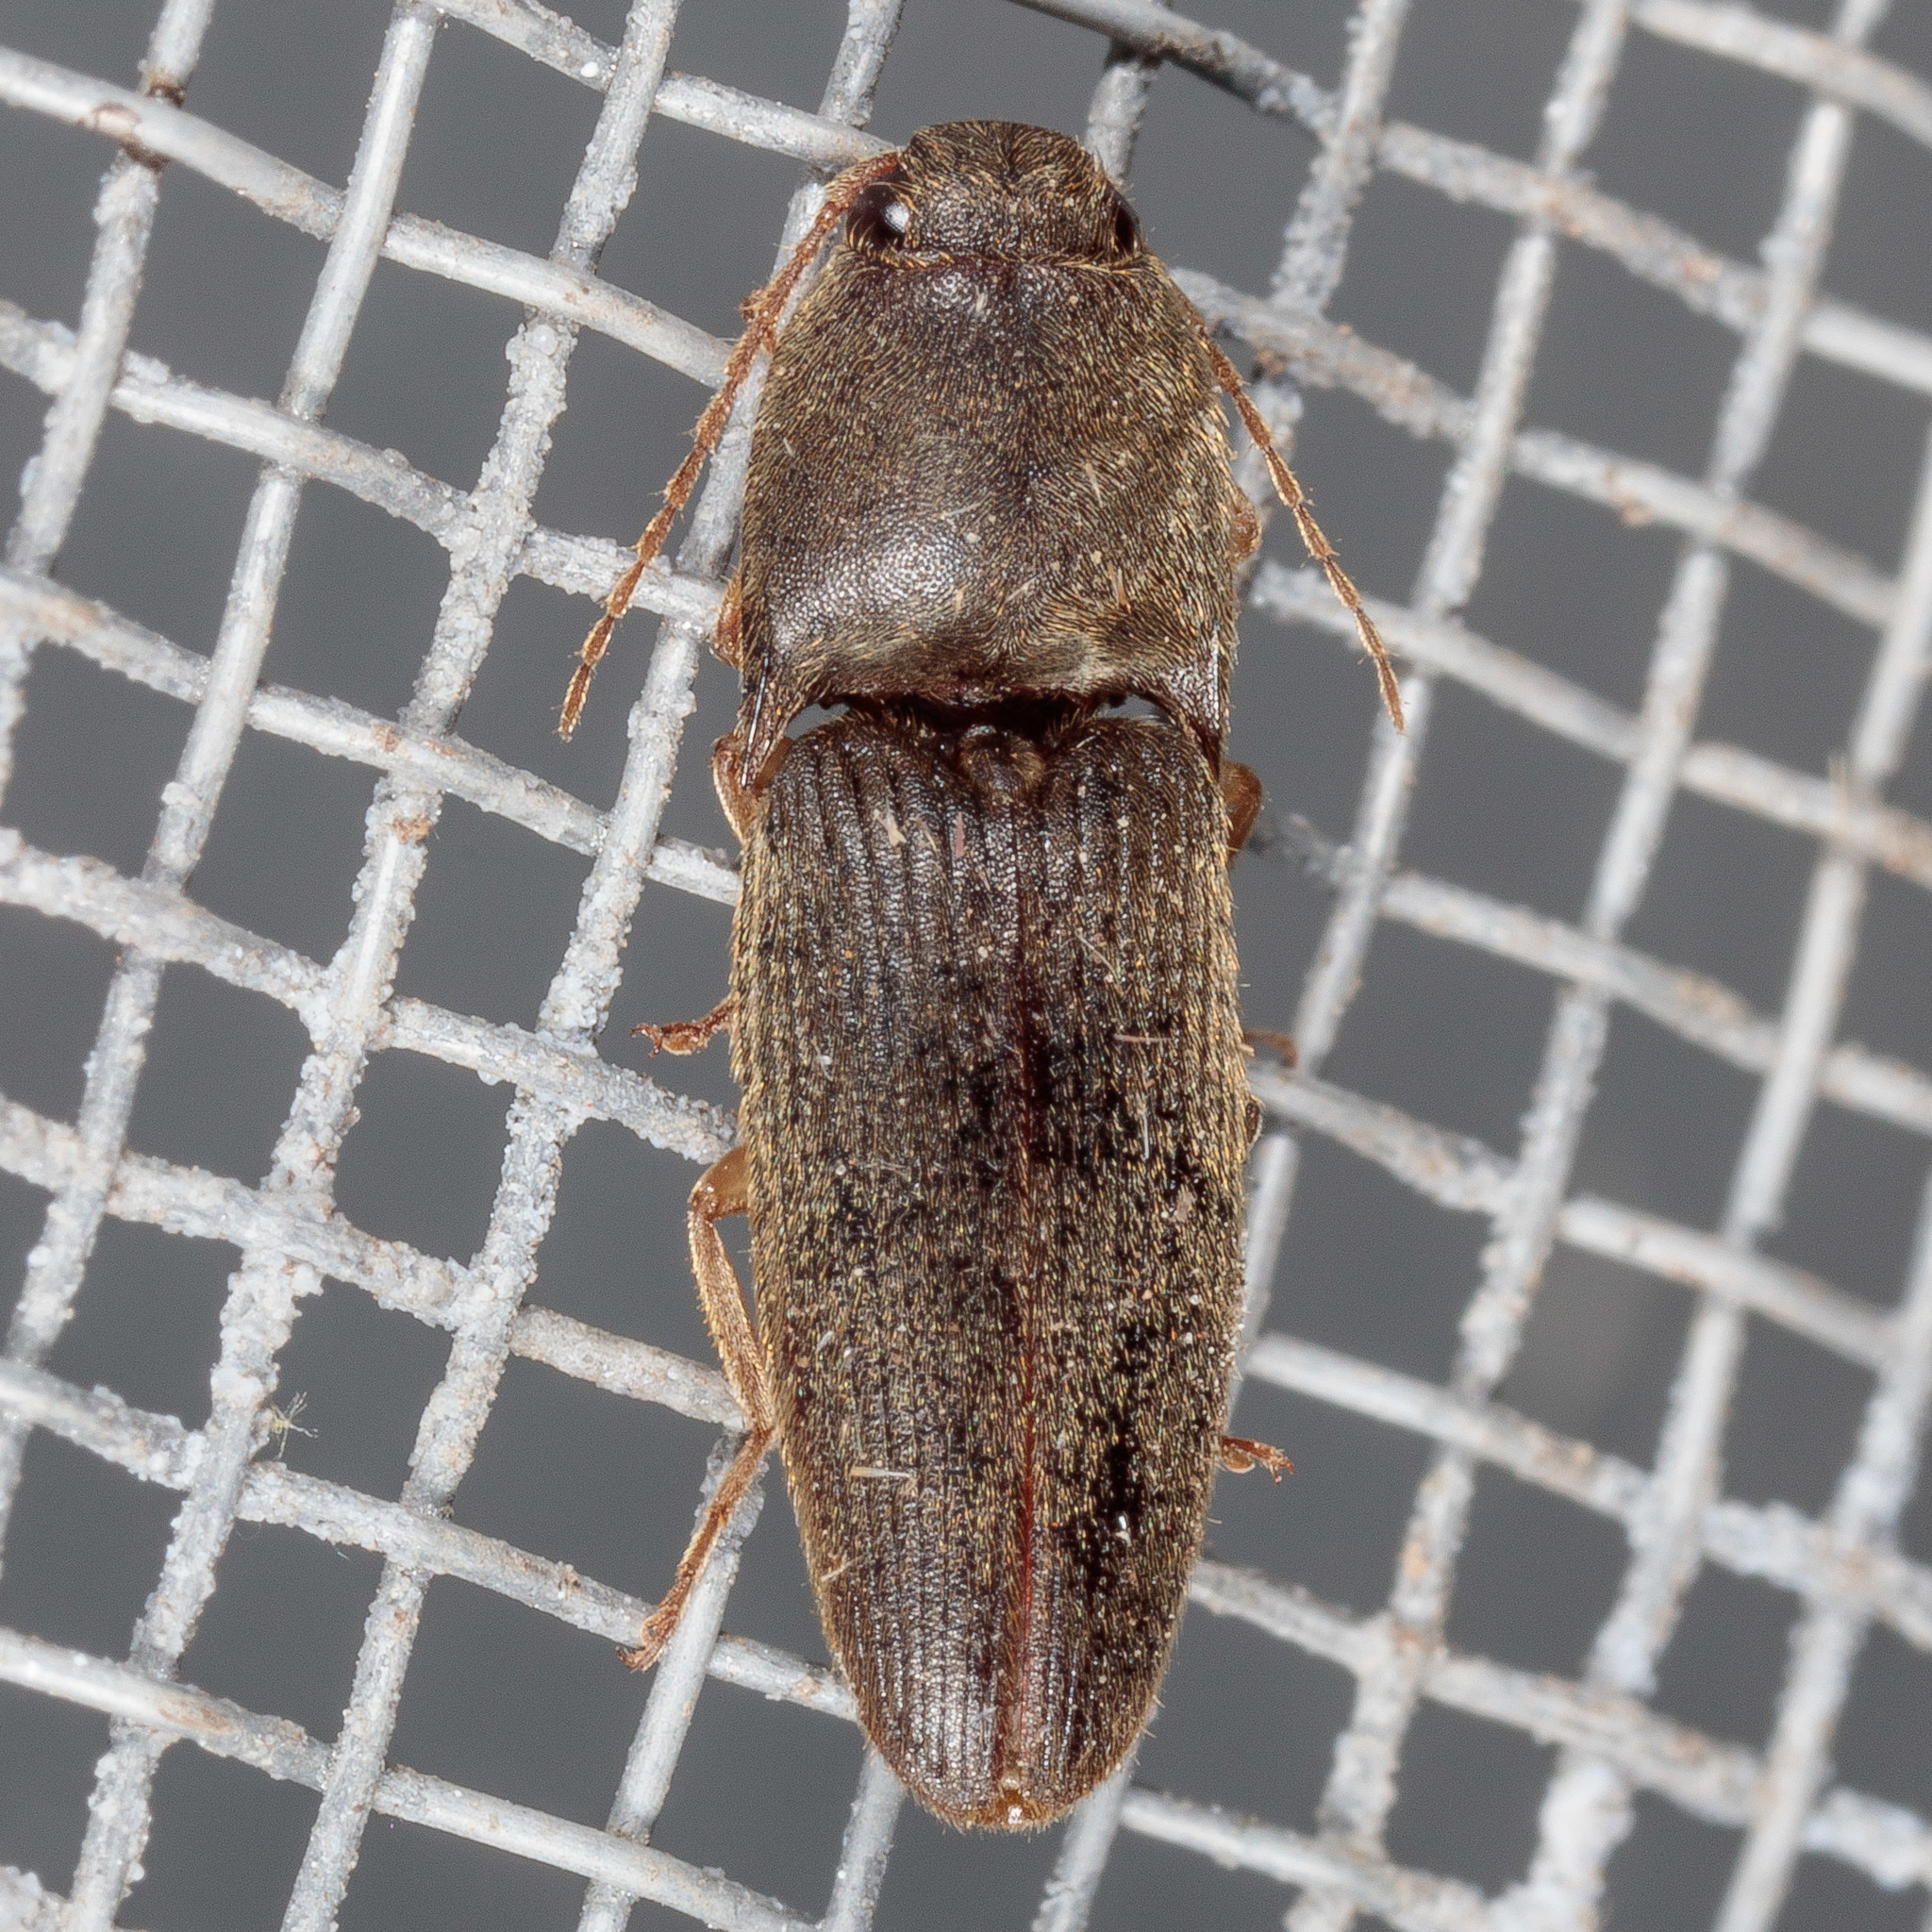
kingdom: Animalia
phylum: Arthropoda
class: Insecta
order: Coleoptera
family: Elateridae
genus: Conoderus
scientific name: Conoderus exsul
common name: Click beetle
